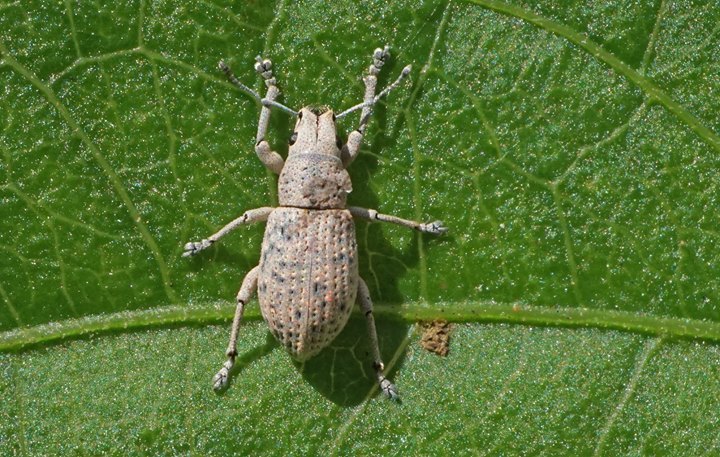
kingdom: Animalia
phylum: Arthropoda
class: Insecta
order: Coleoptera
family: Curculionidae
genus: Artipus
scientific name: Artipus floridanus
